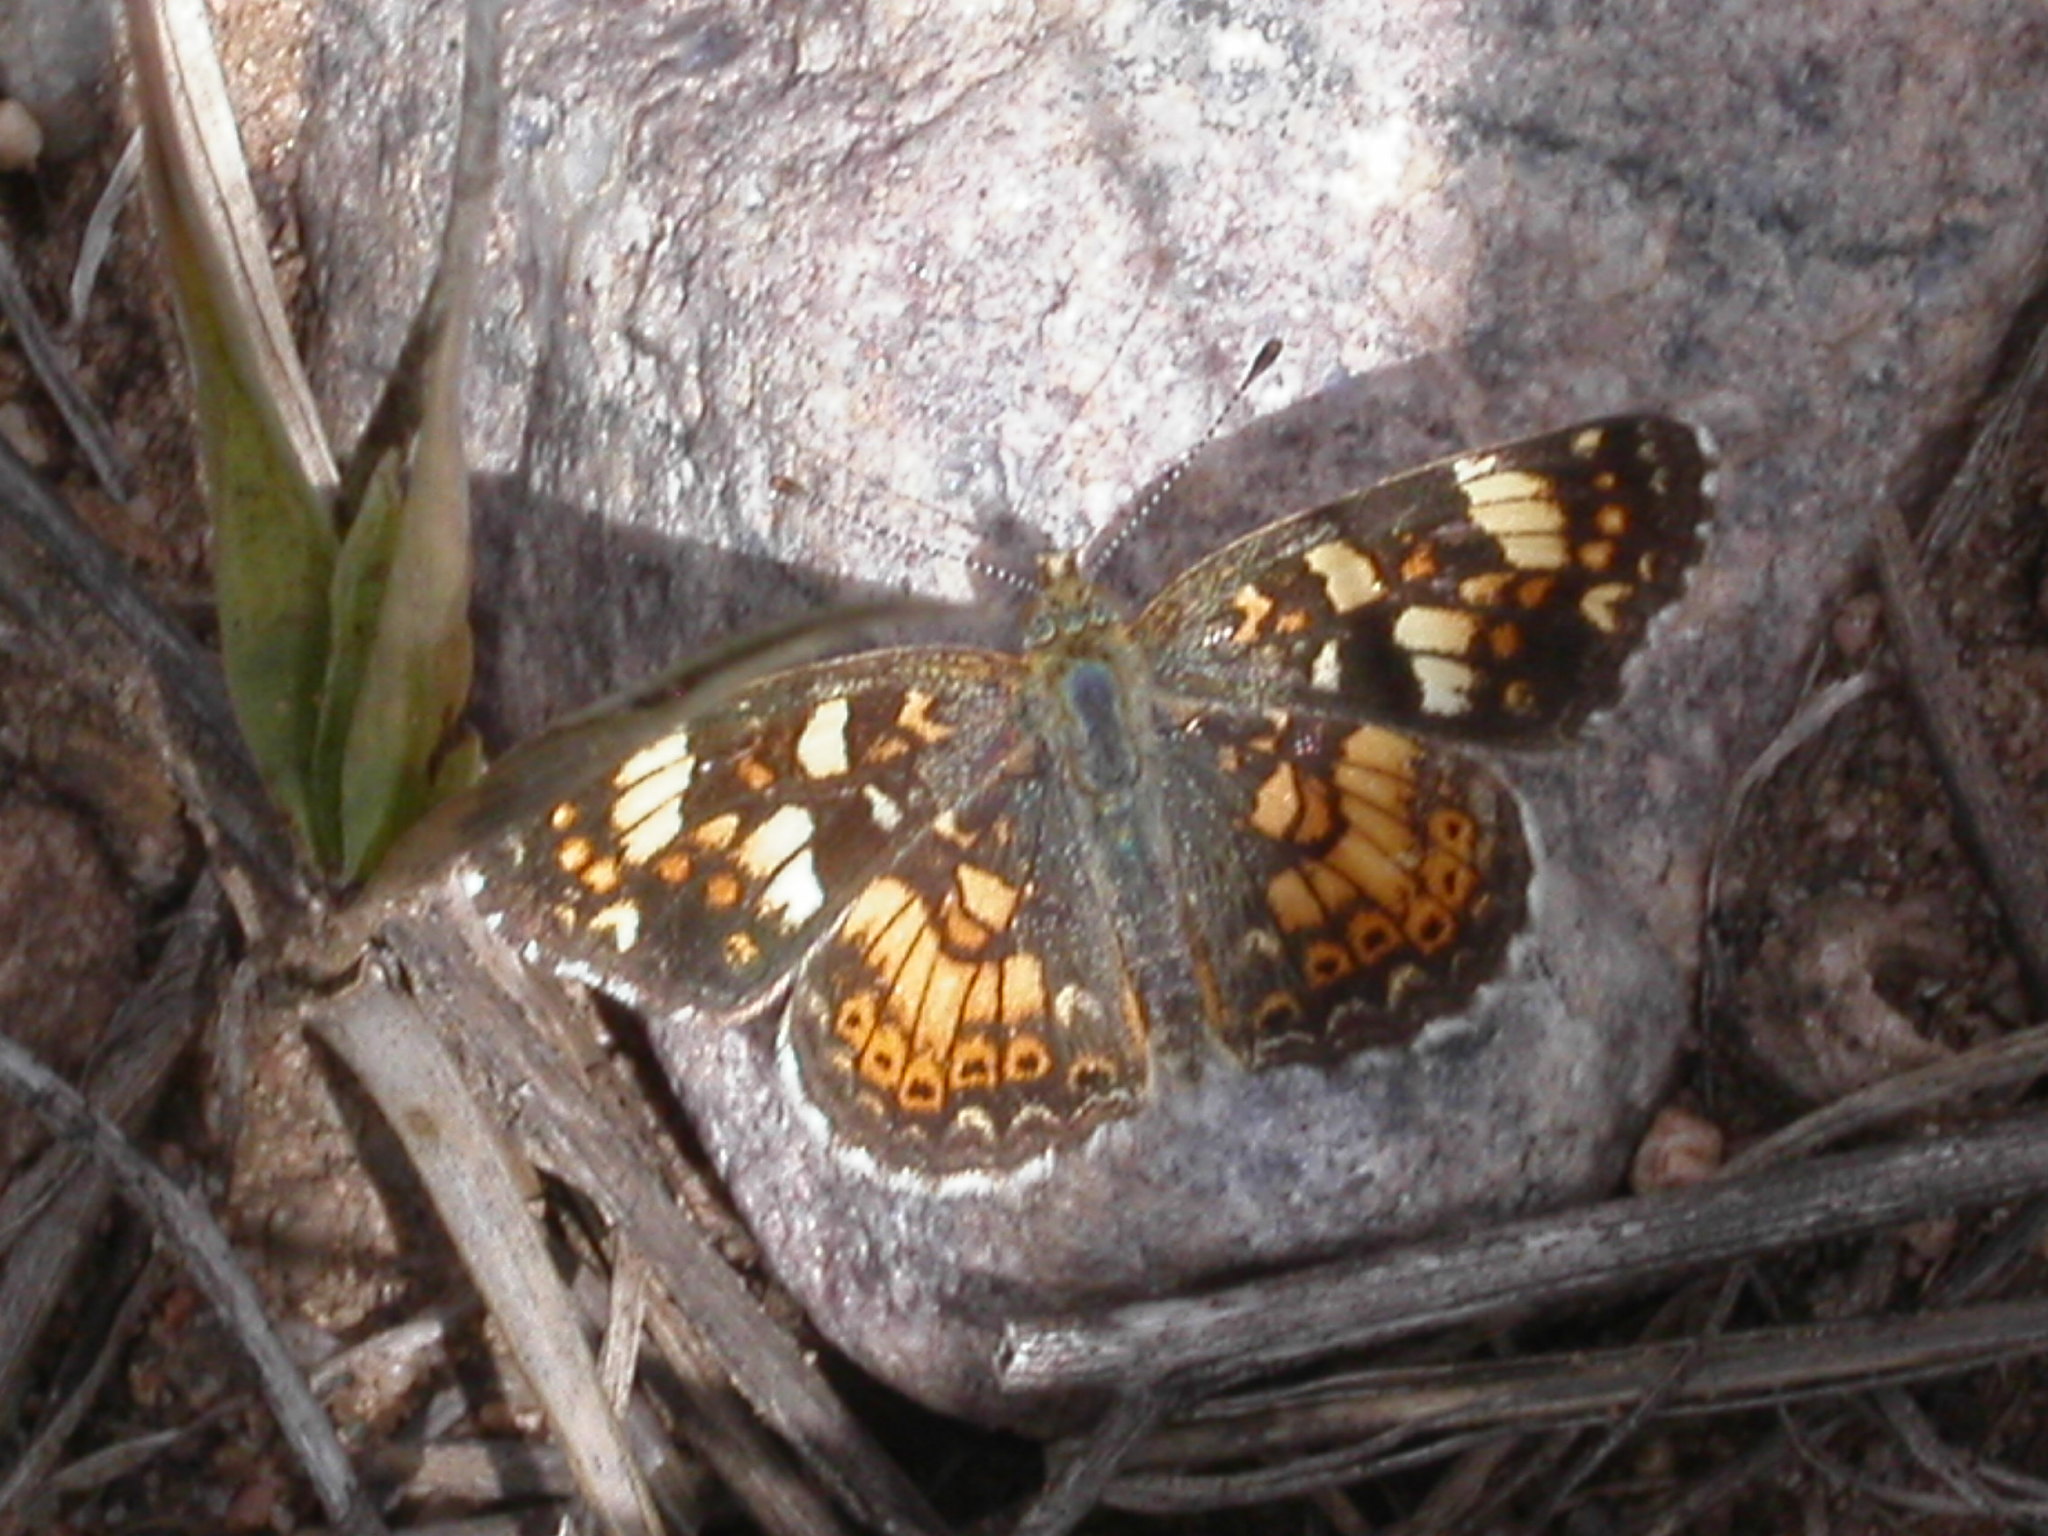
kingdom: Animalia
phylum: Arthropoda
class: Insecta
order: Lepidoptera
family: Nymphalidae
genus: Phyciodes
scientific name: Phyciodes tharos
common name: Pearl crescent
